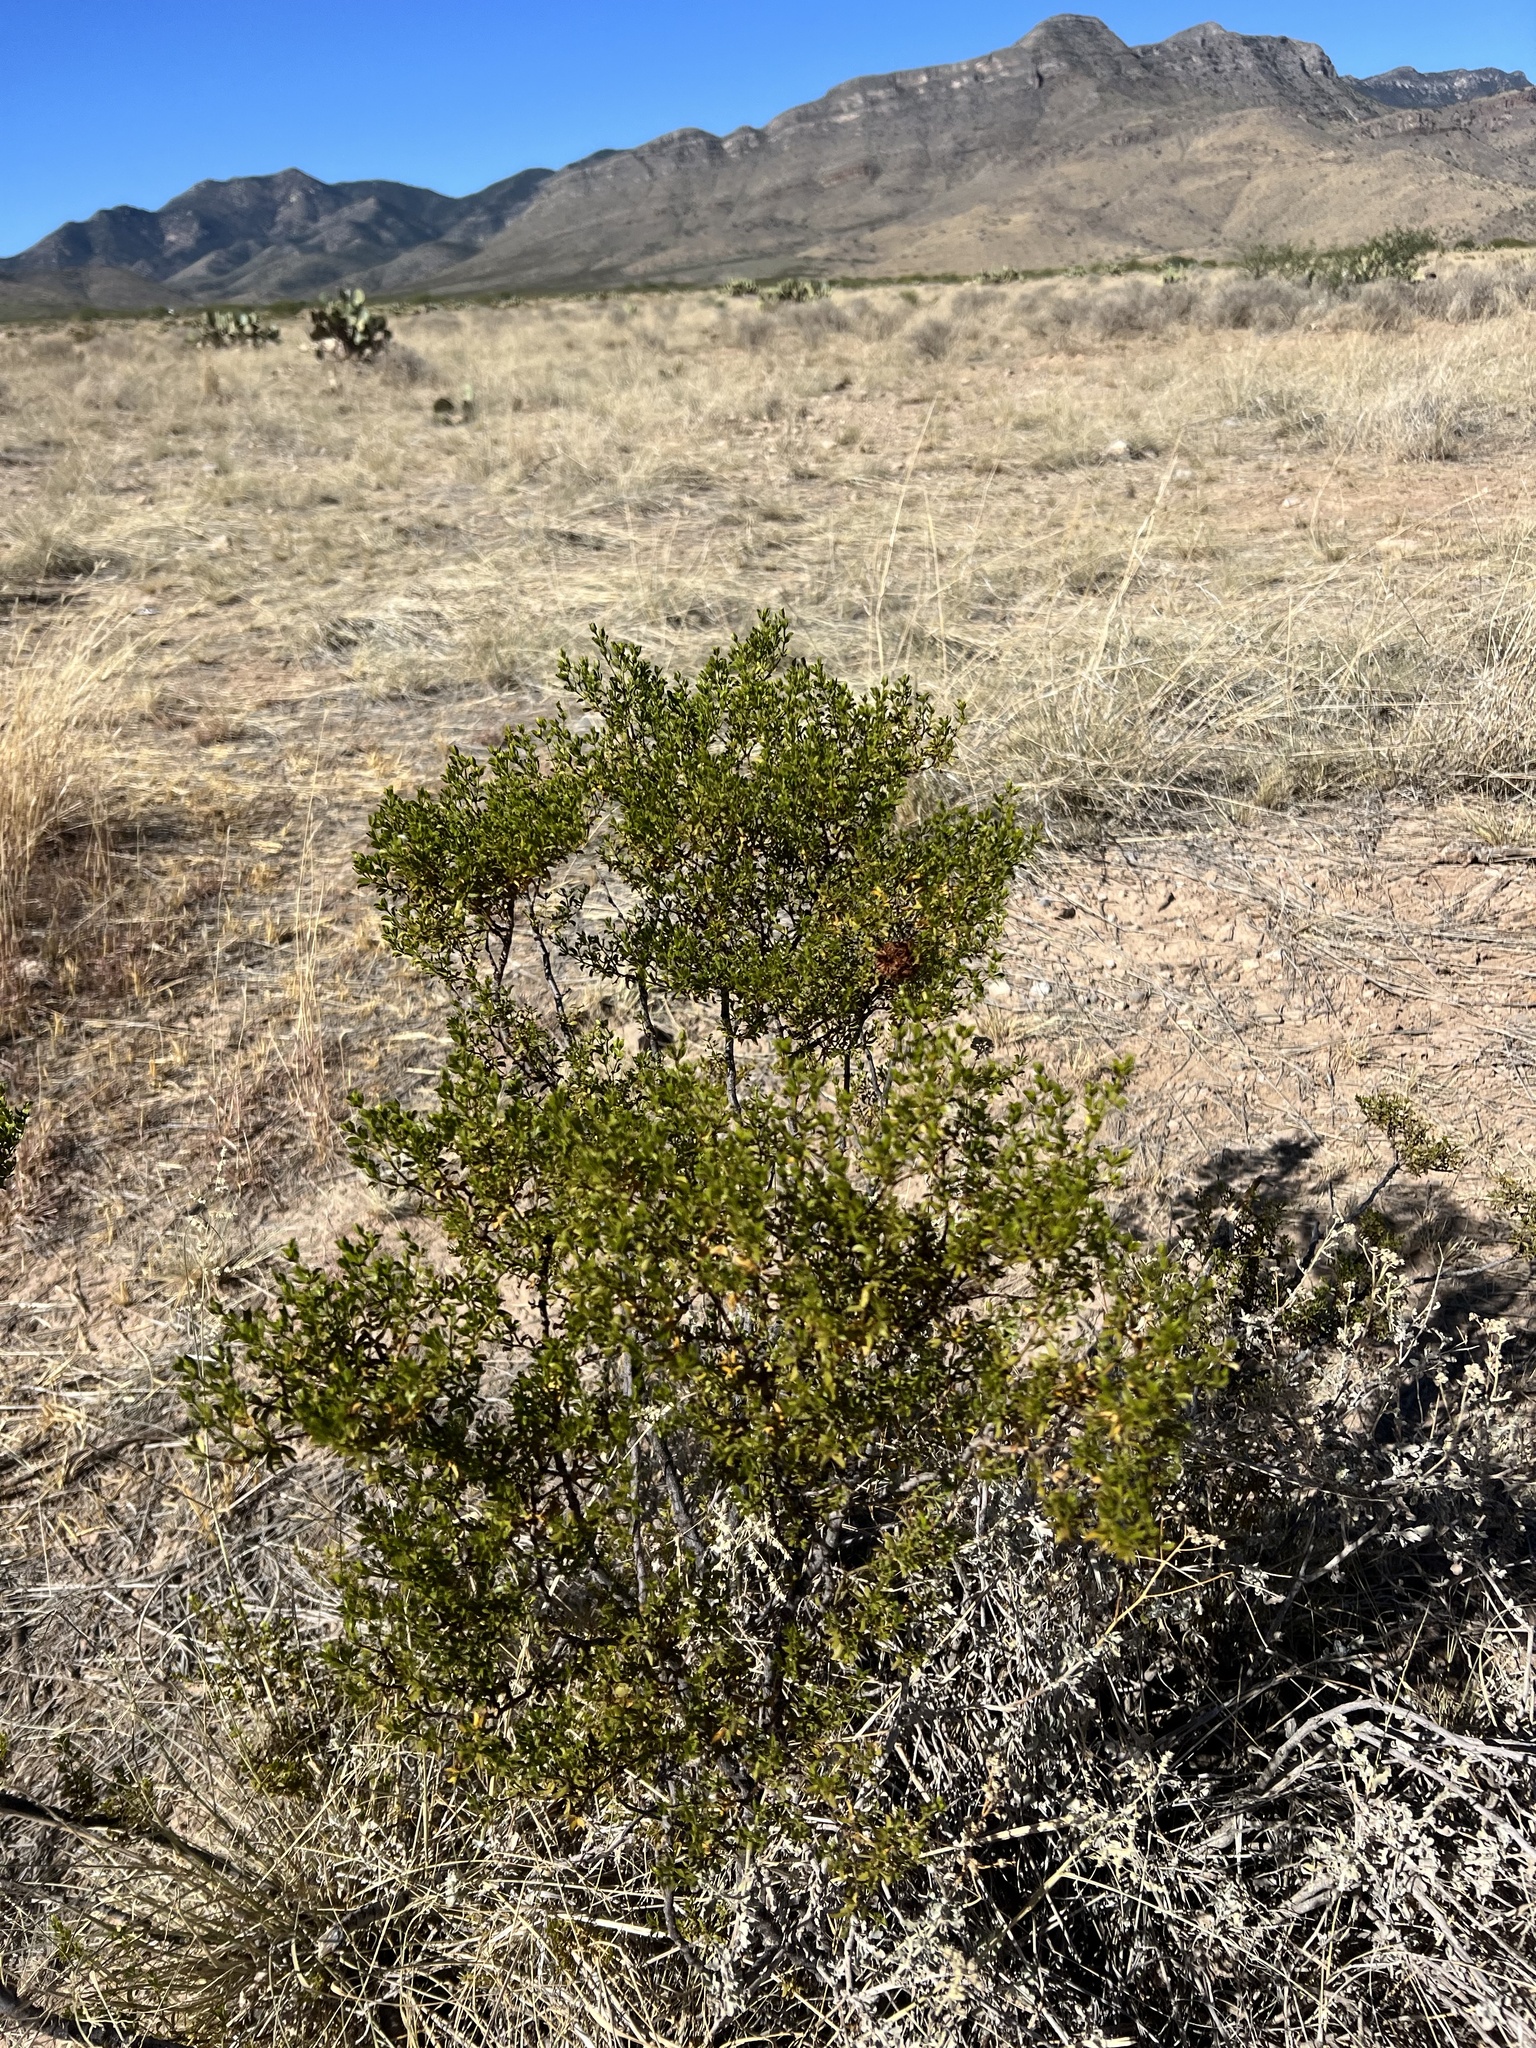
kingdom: Plantae
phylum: Tracheophyta
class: Magnoliopsida
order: Zygophyllales
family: Zygophyllaceae
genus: Larrea
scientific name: Larrea tridentata
